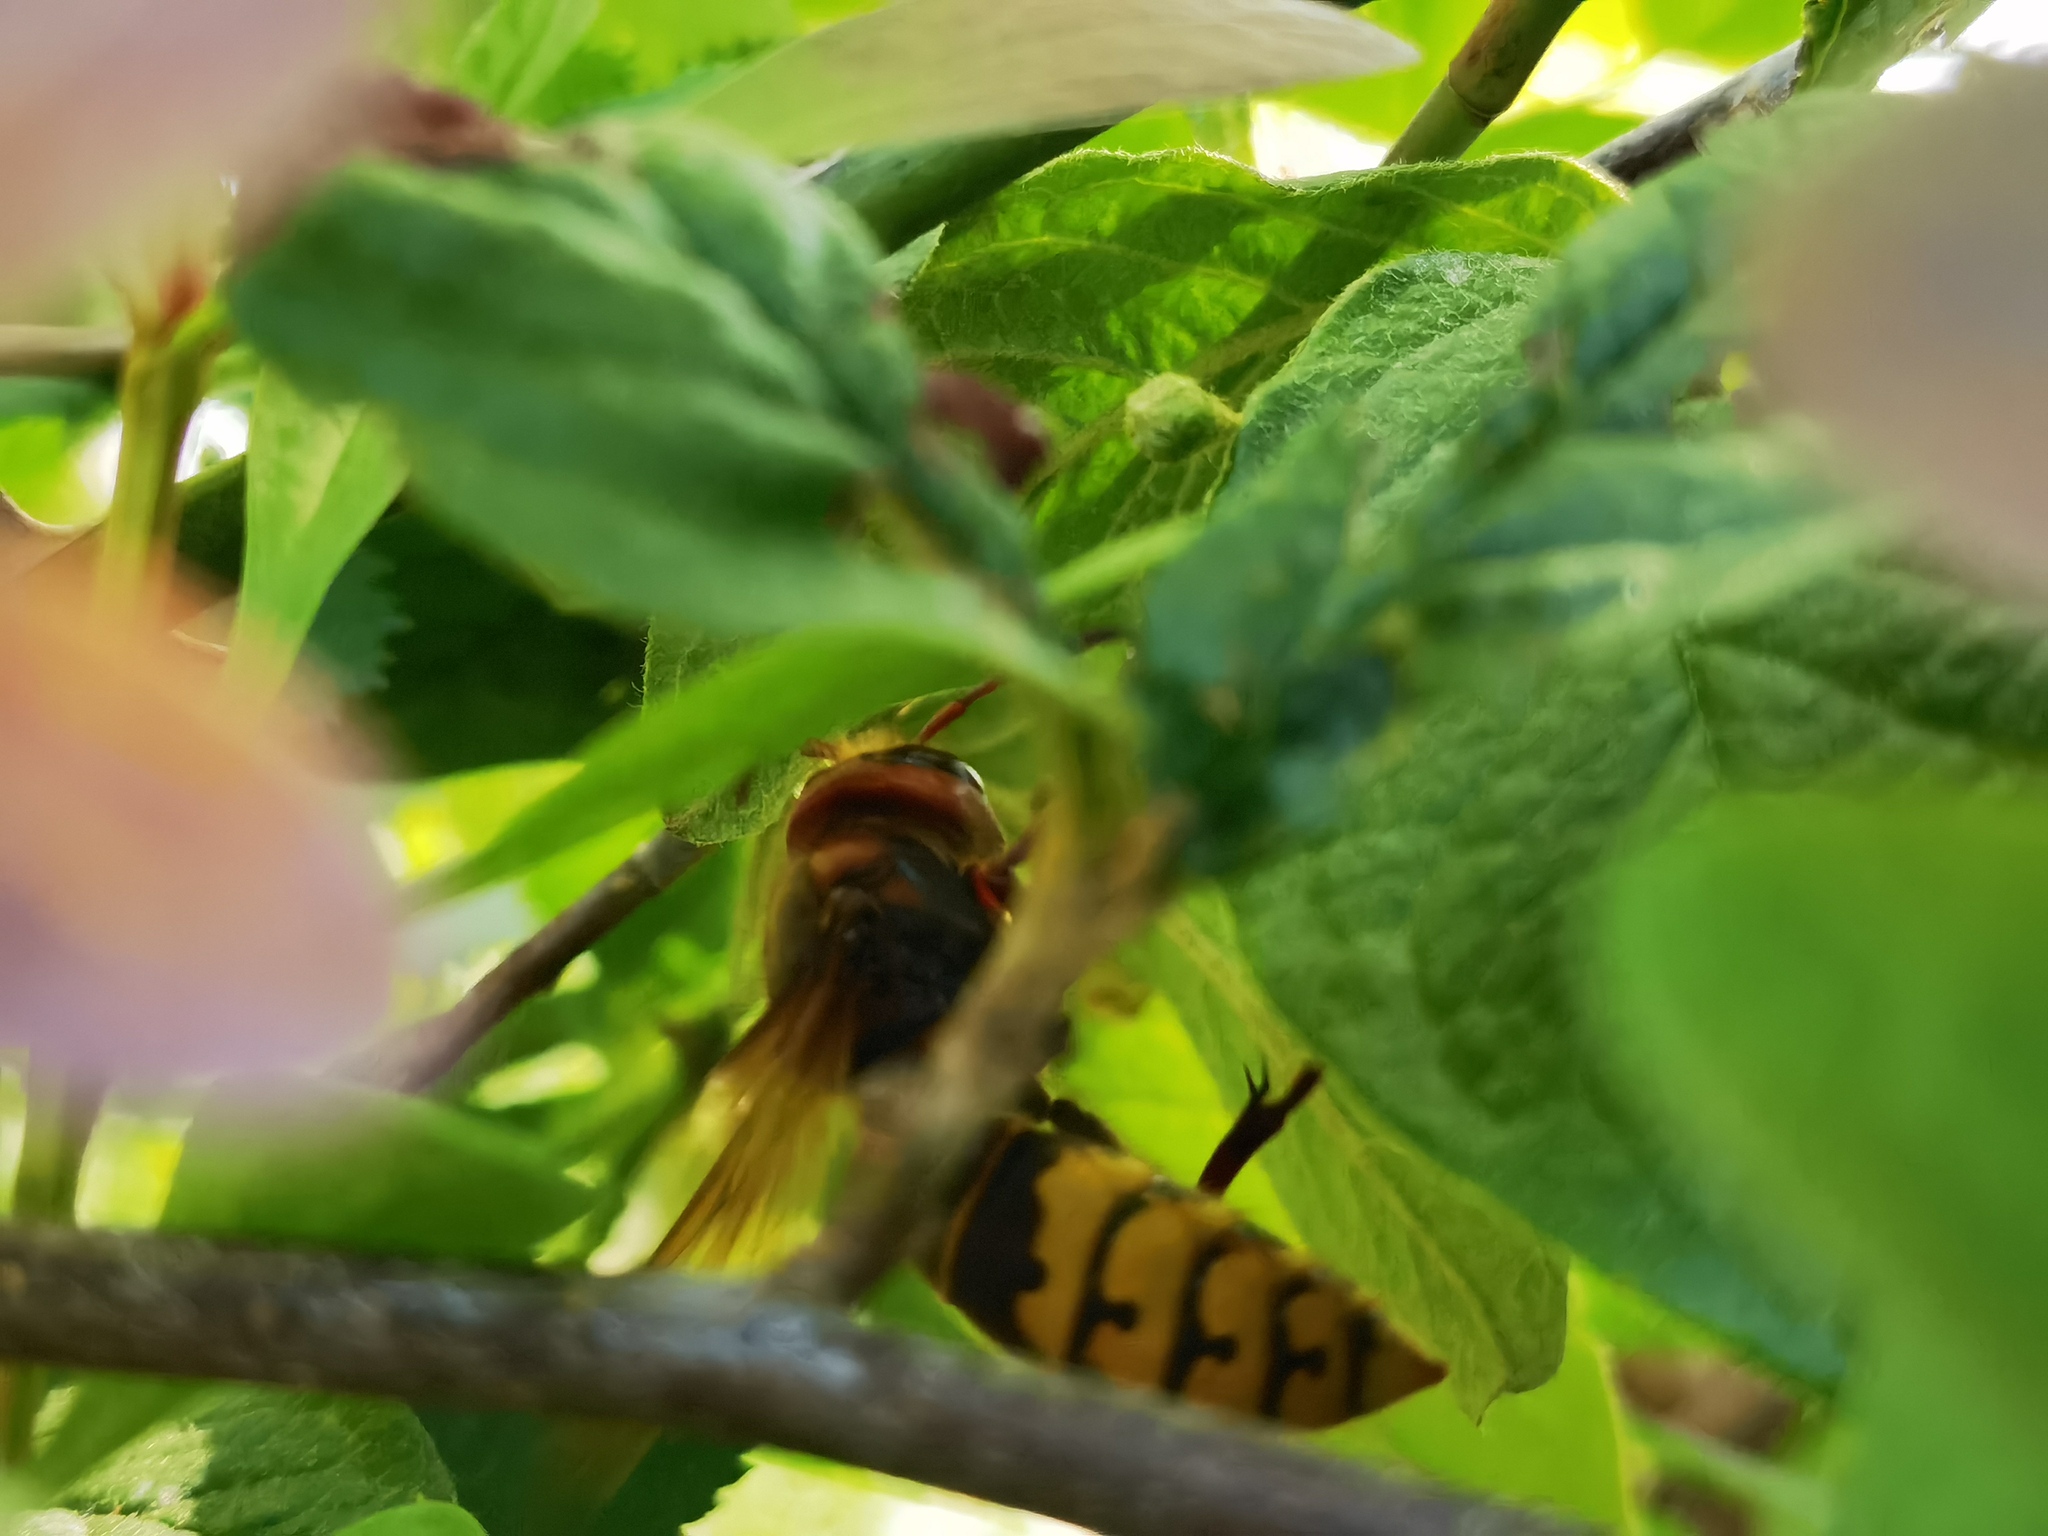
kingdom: Animalia
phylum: Arthropoda
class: Insecta
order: Hymenoptera
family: Vespidae
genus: Vespa
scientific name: Vespa crabro
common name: Hornet
